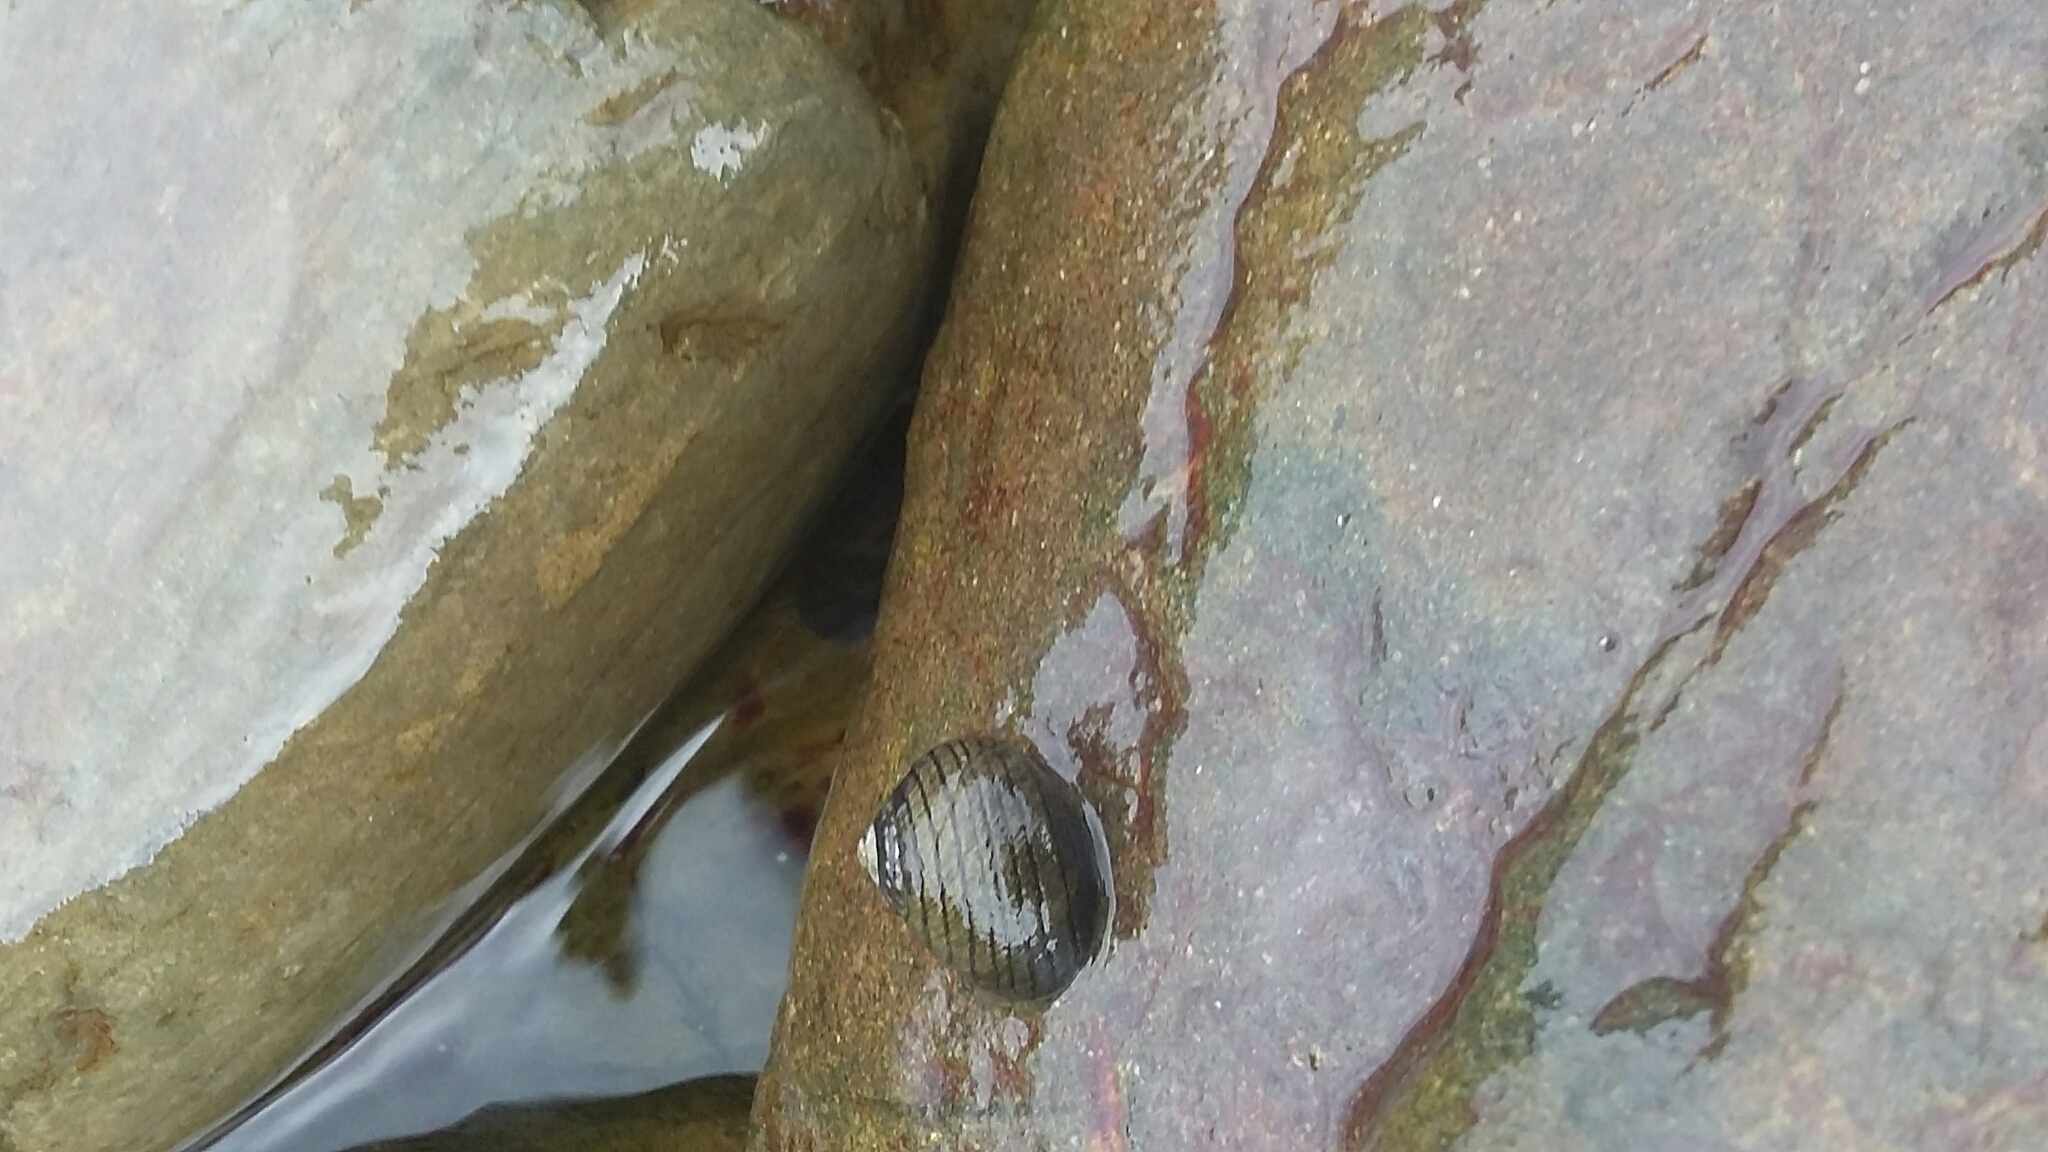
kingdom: Animalia
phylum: Mollusca
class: Gastropoda
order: Trochida
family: Trochidae
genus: Diloma
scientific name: Diloma aethiops
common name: Scorched monodont
